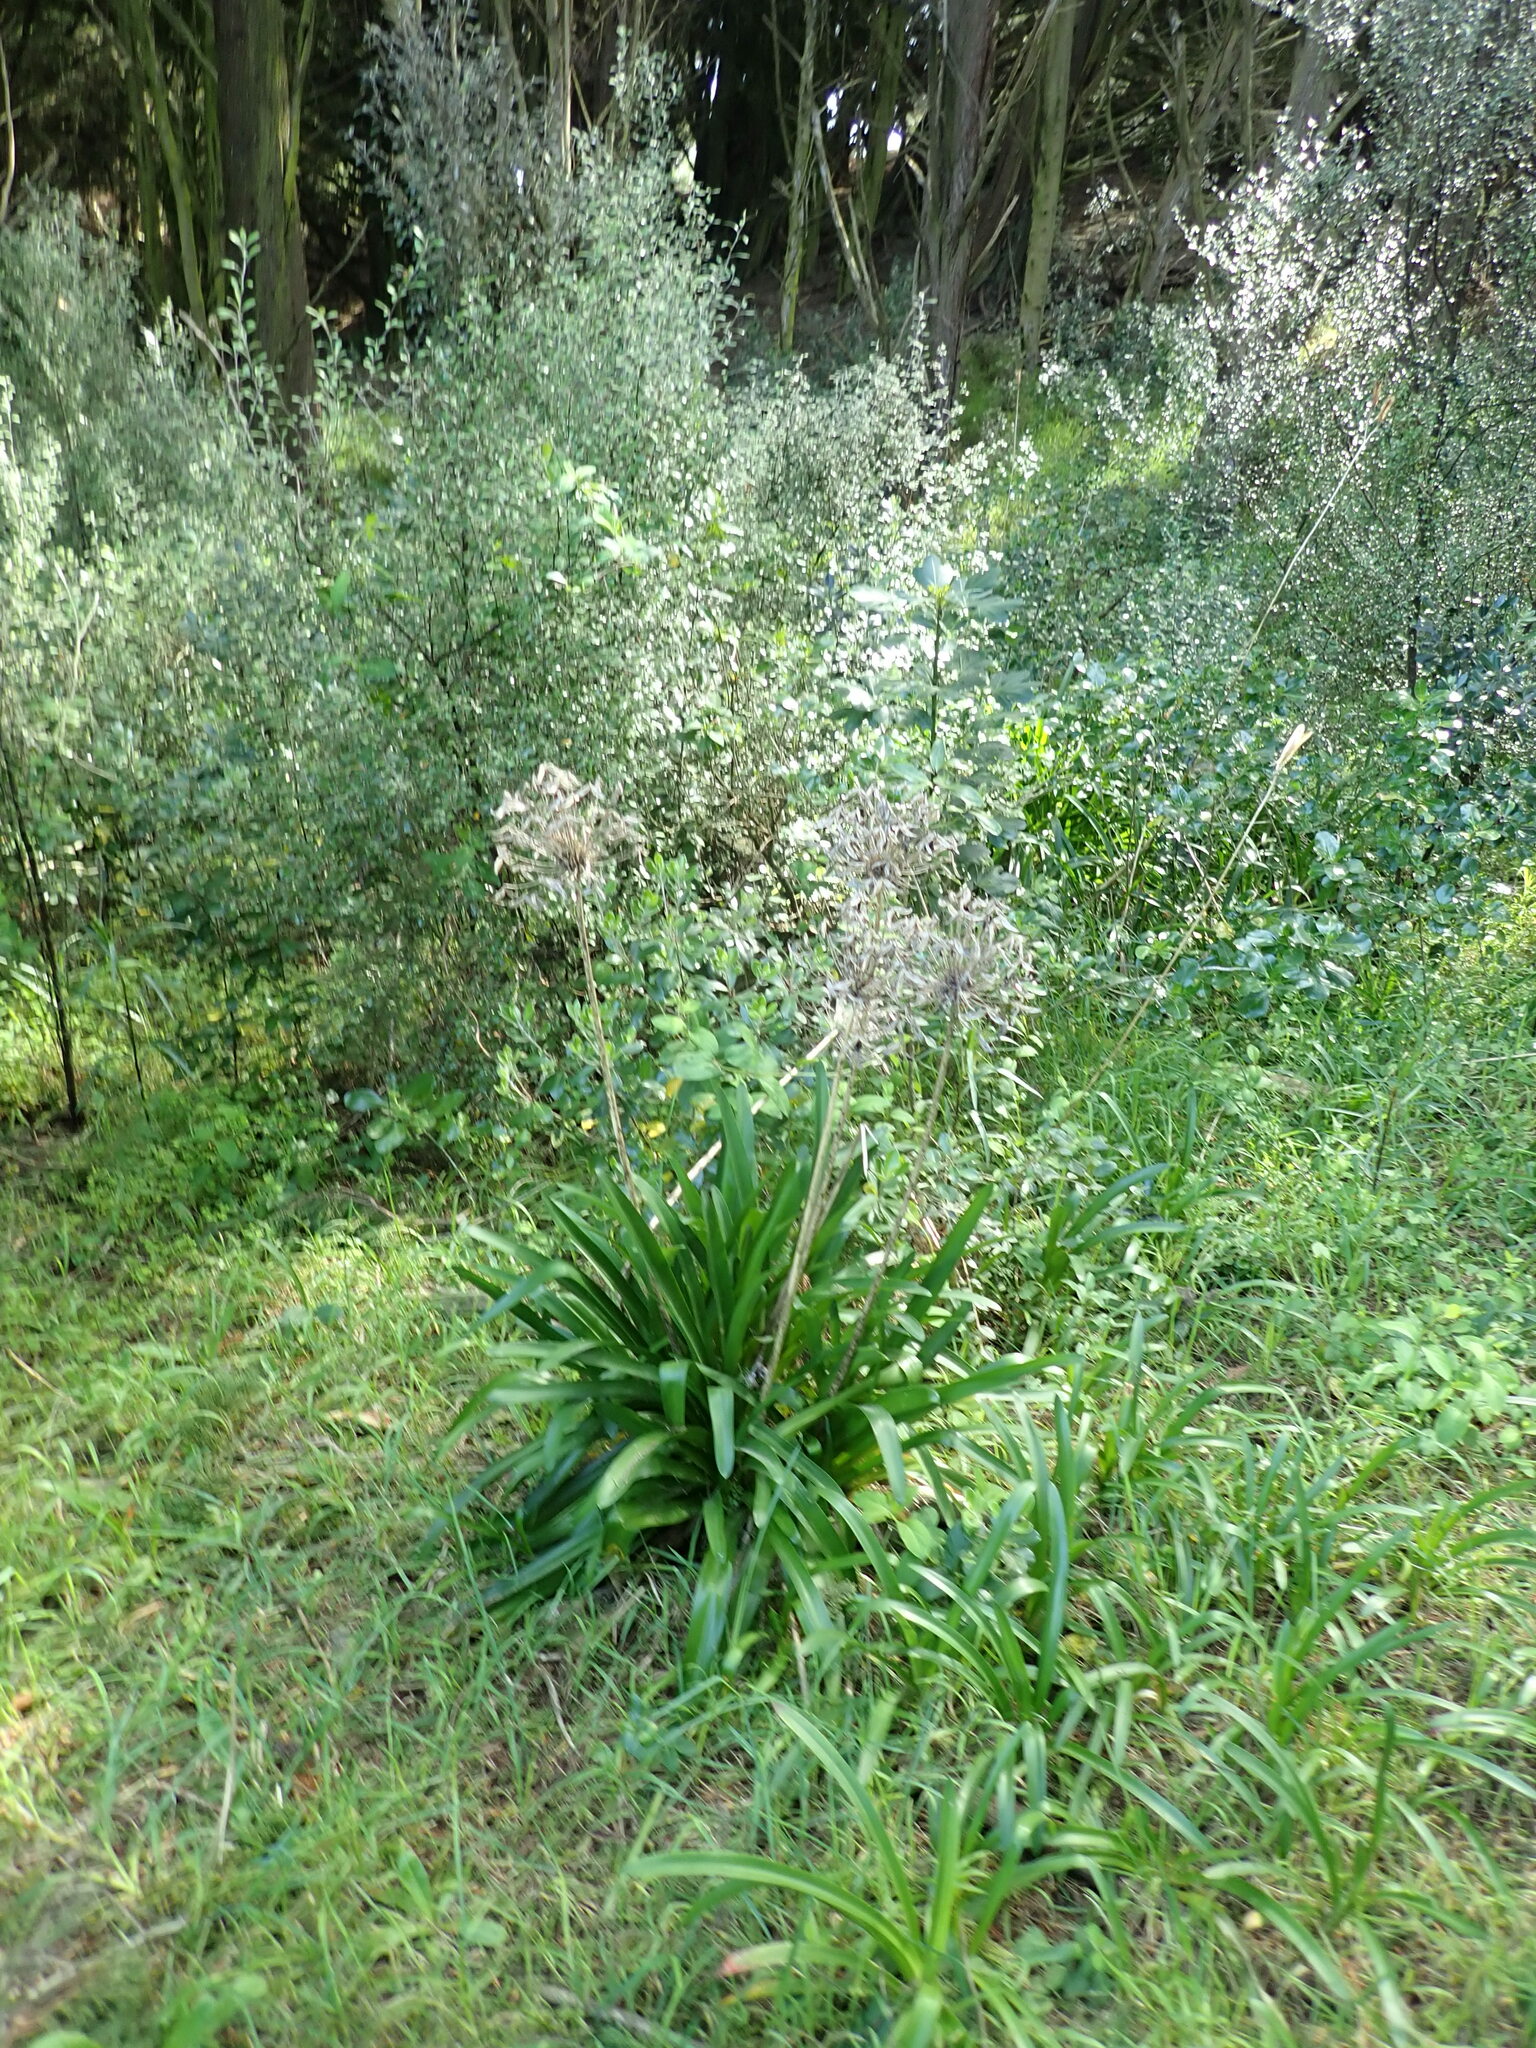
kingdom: Plantae
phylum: Tracheophyta
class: Liliopsida
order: Asparagales
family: Amaryllidaceae
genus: Agapanthus
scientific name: Agapanthus praecox
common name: African-lily
